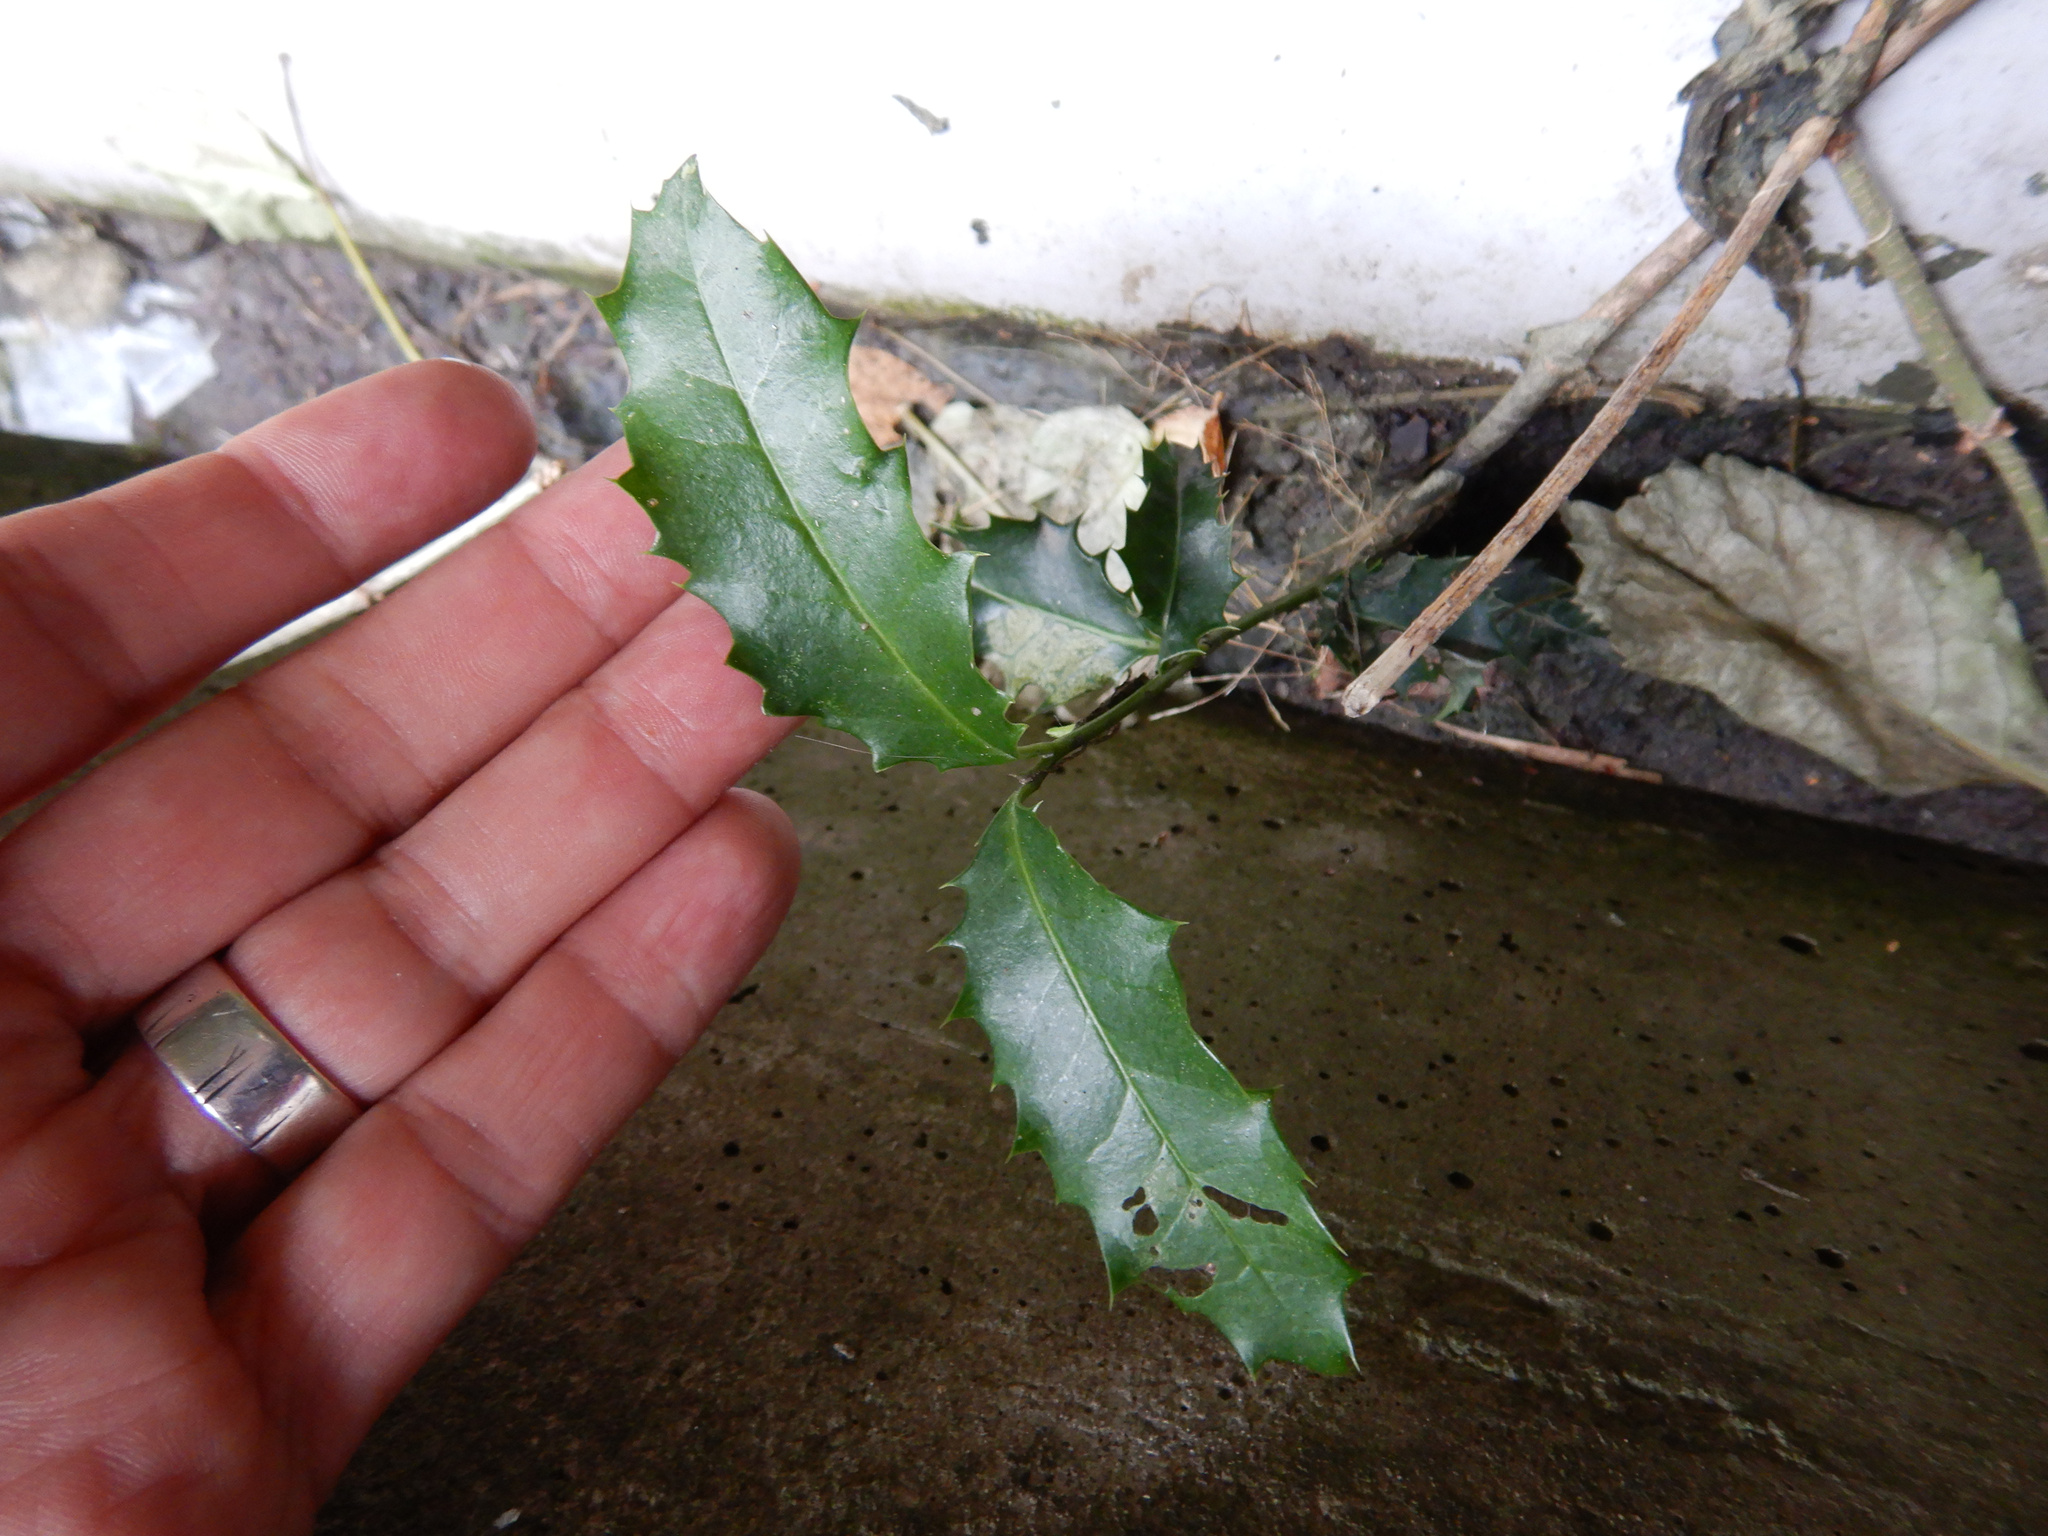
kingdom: Plantae
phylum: Tracheophyta
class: Magnoliopsida
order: Aquifoliales
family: Aquifoliaceae
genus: Ilex
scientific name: Ilex aquifolium
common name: English holly
